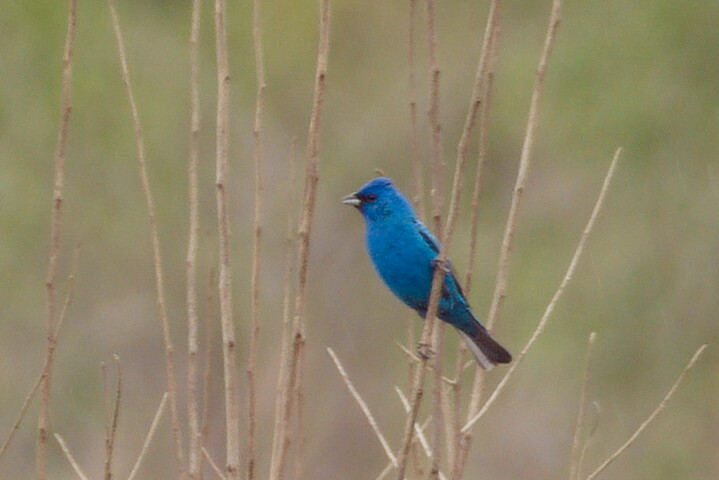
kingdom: Animalia
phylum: Chordata
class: Aves
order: Passeriformes
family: Cardinalidae
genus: Passerina
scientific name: Passerina cyanea
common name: Indigo bunting
